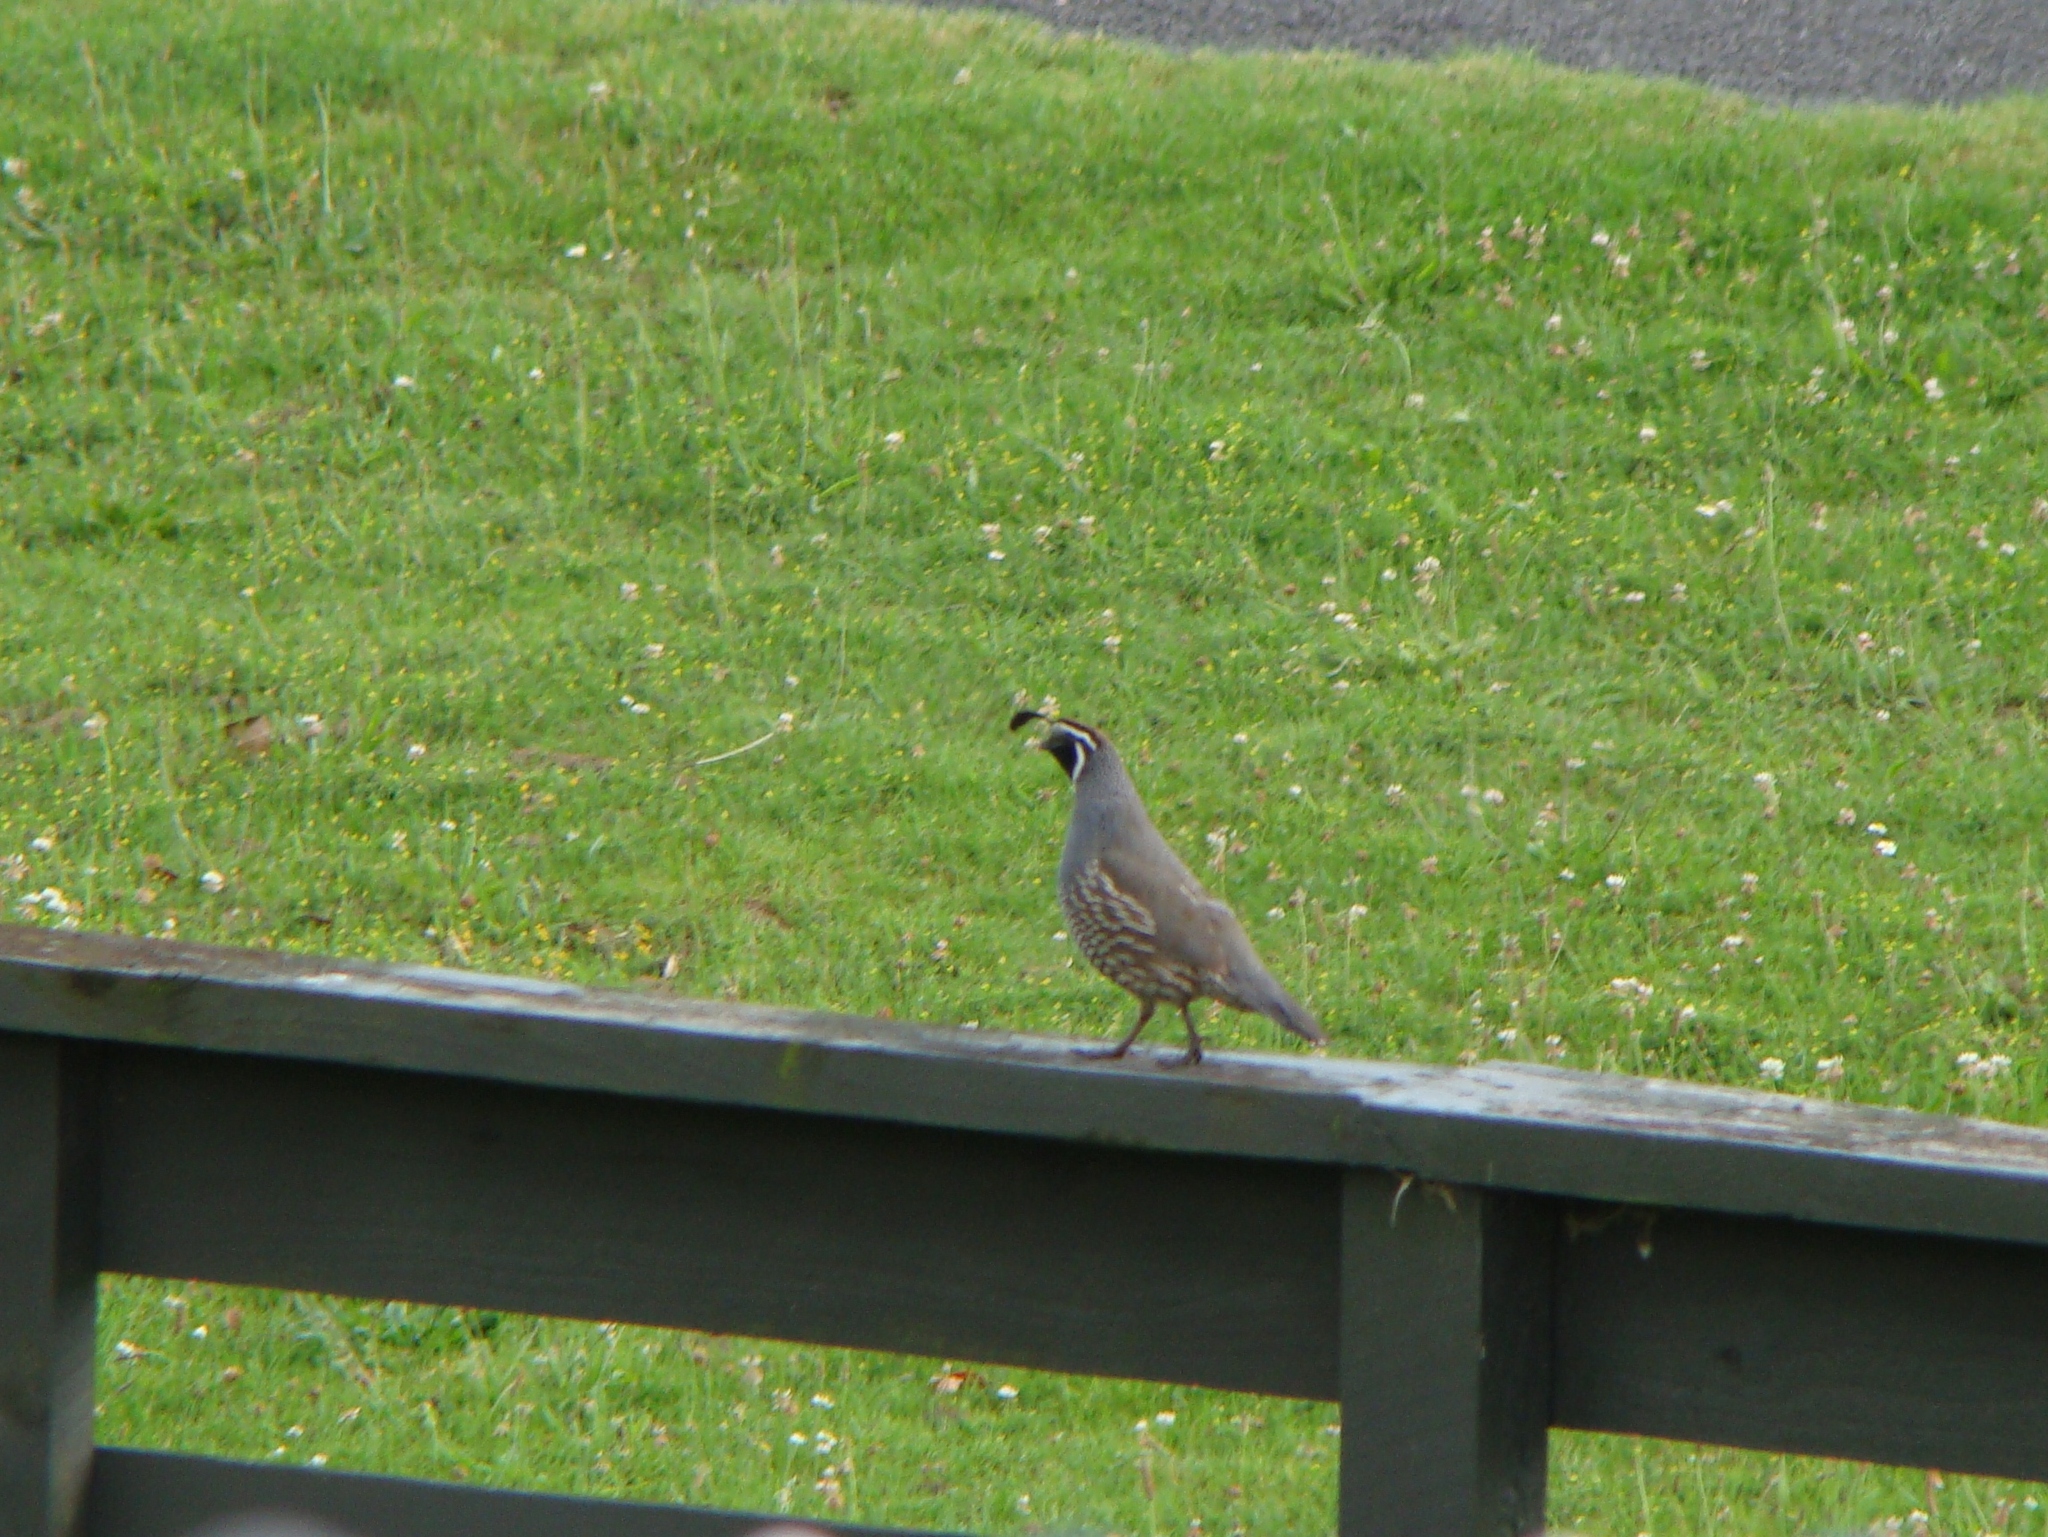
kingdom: Animalia
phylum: Chordata
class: Aves
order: Galliformes
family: Odontophoridae
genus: Callipepla
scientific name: Callipepla californica
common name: California quail
